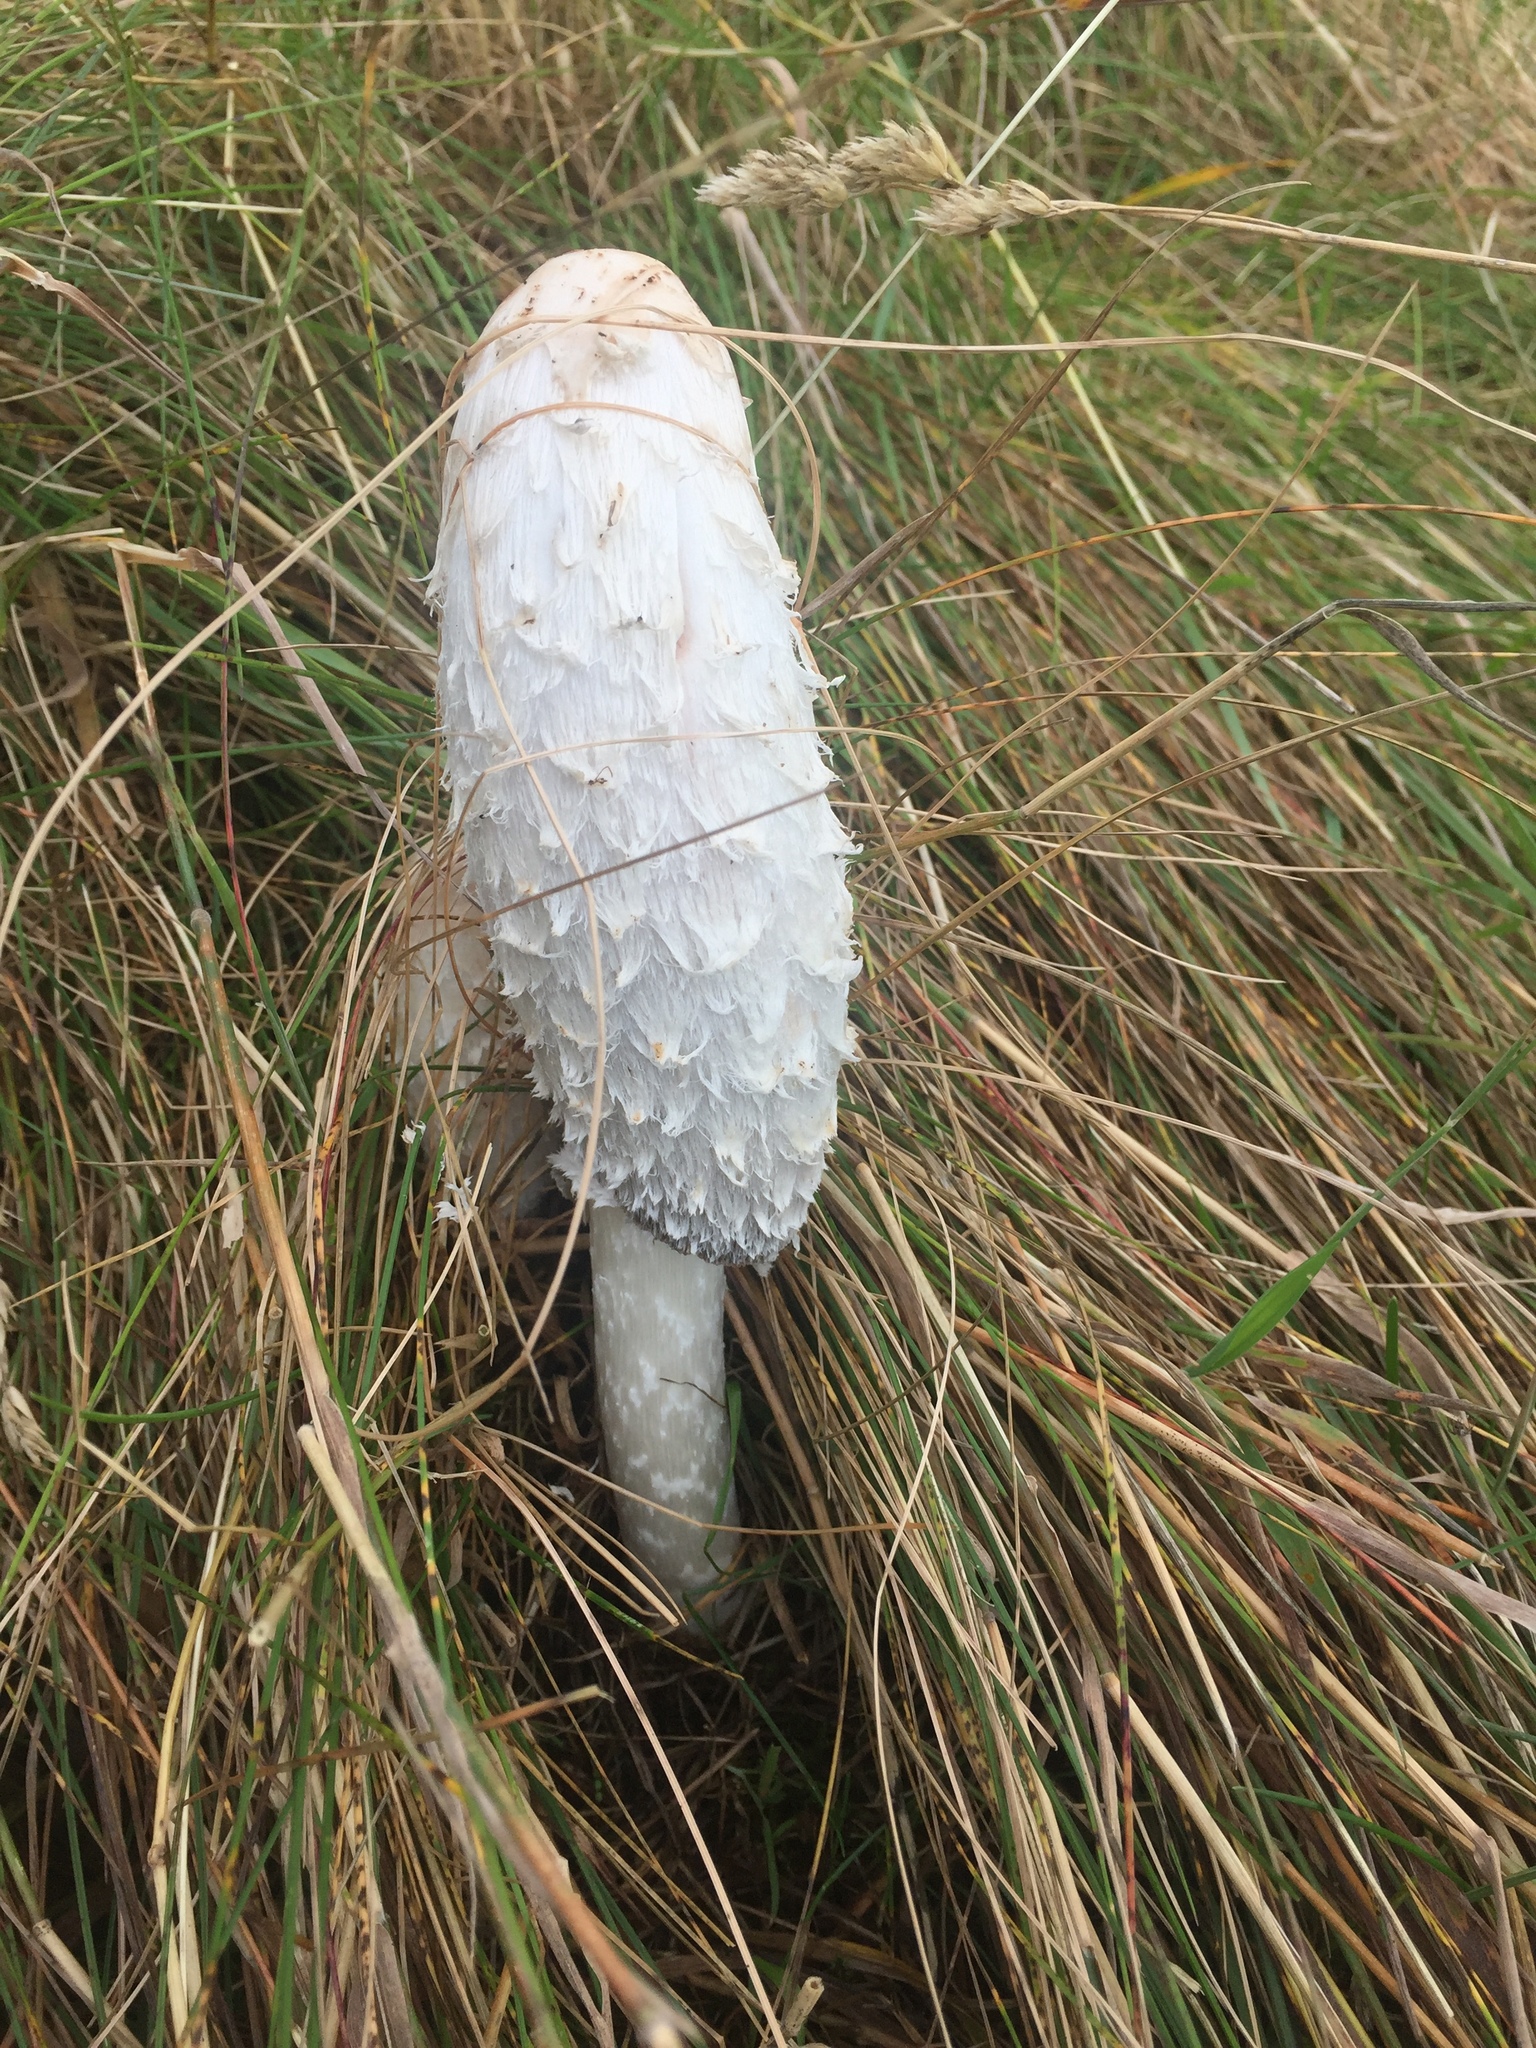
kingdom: Fungi
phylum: Basidiomycota
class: Agaricomycetes
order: Agaricales
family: Agaricaceae
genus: Coprinus
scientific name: Coprinus comatus
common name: Lawyer's wig
